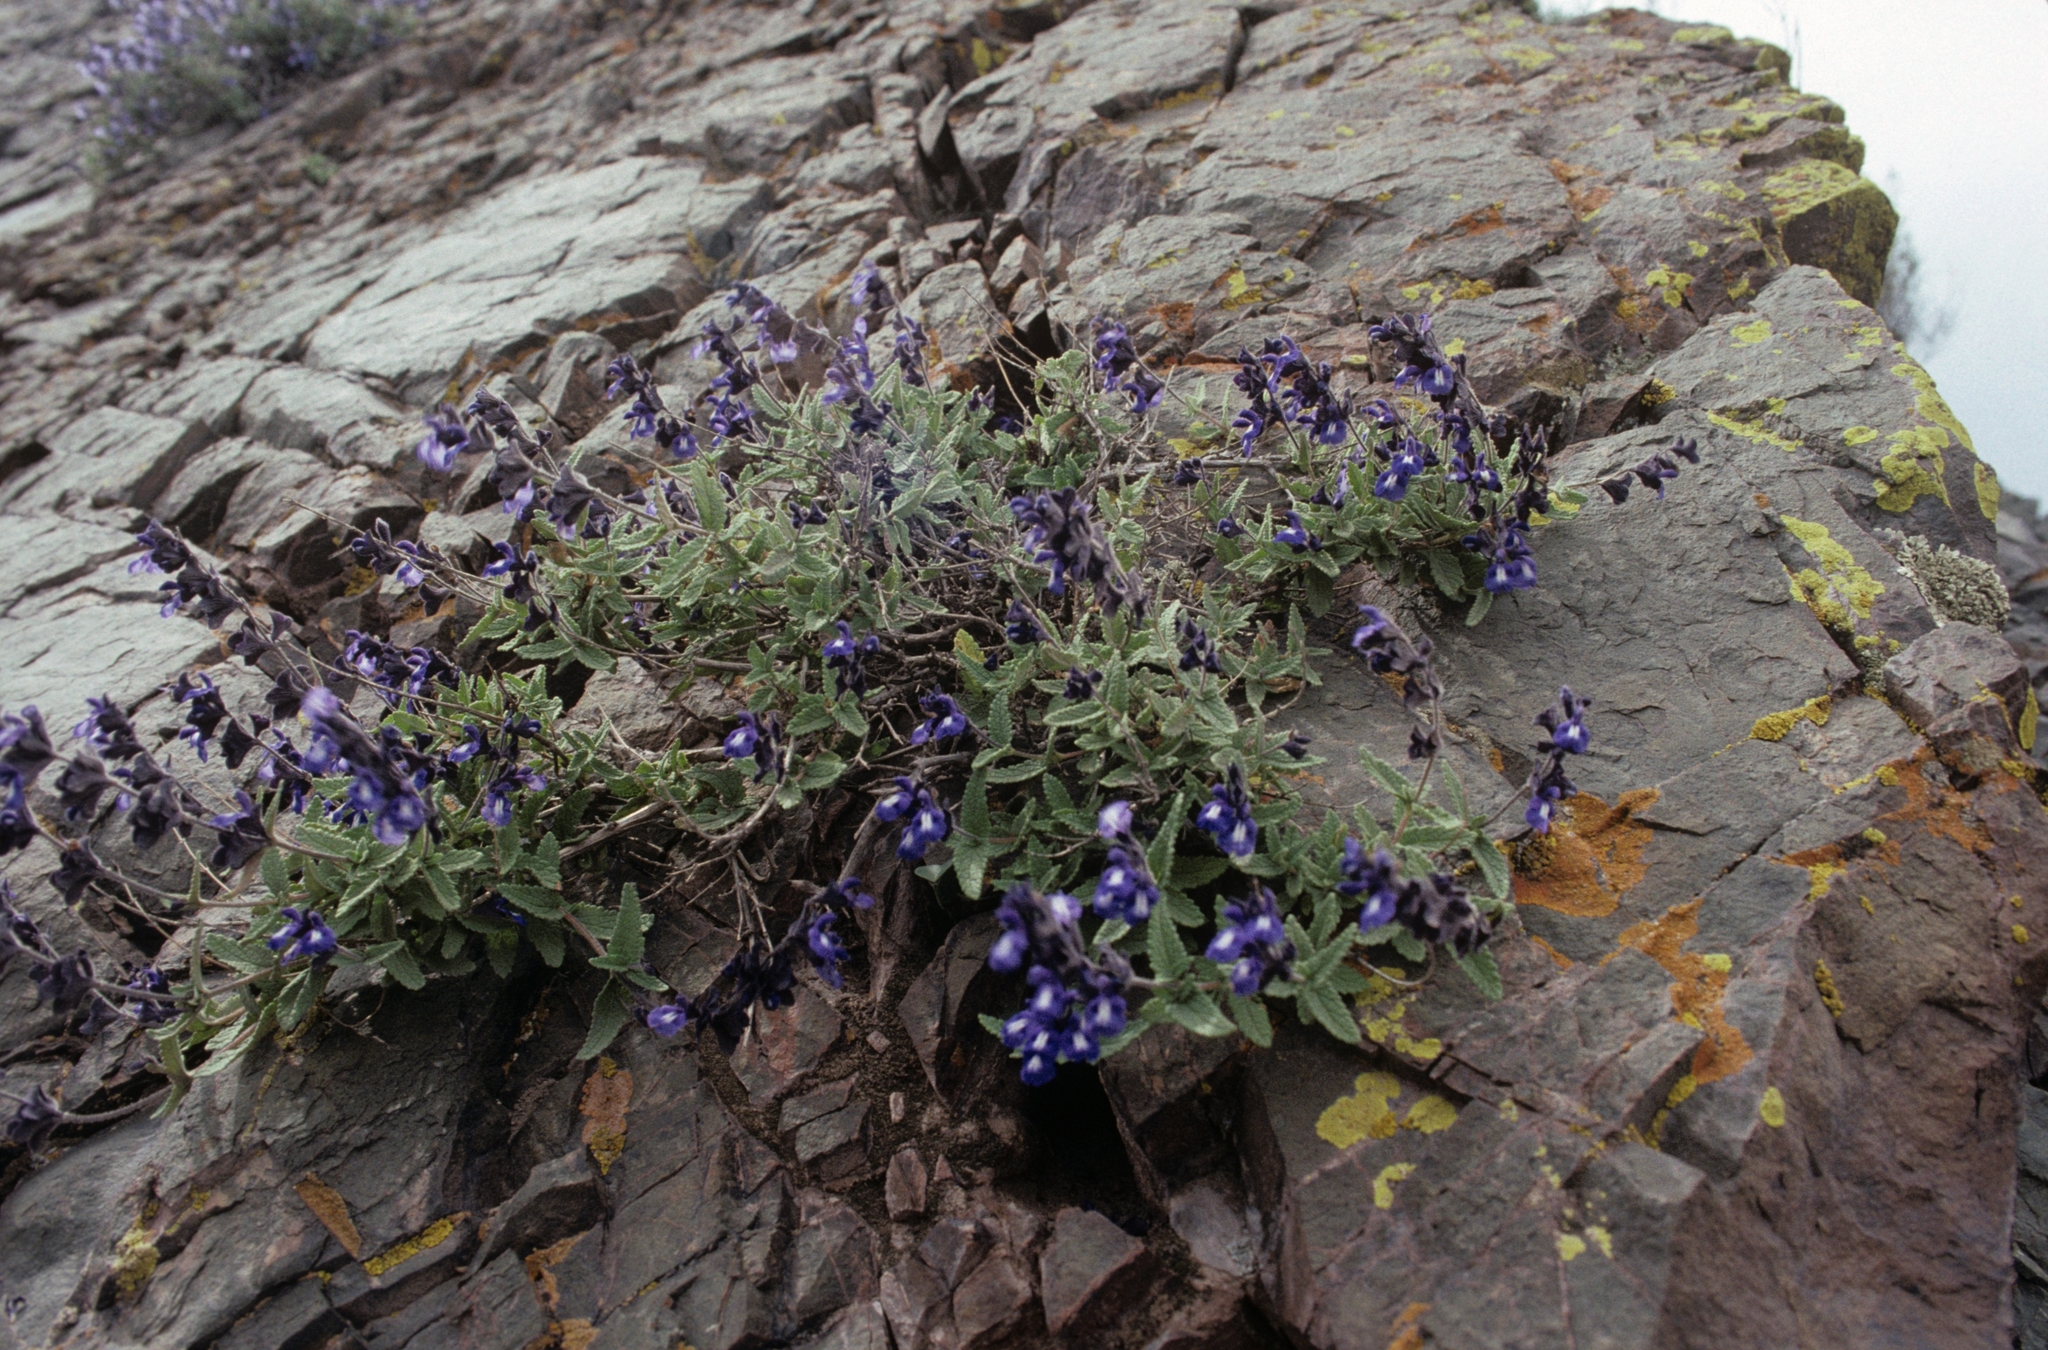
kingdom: Plantae
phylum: Tracheophyta
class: Magnoliopsida
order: Lamiales
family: Lamiaceae
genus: Salvia
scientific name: Salvia cuspidata
